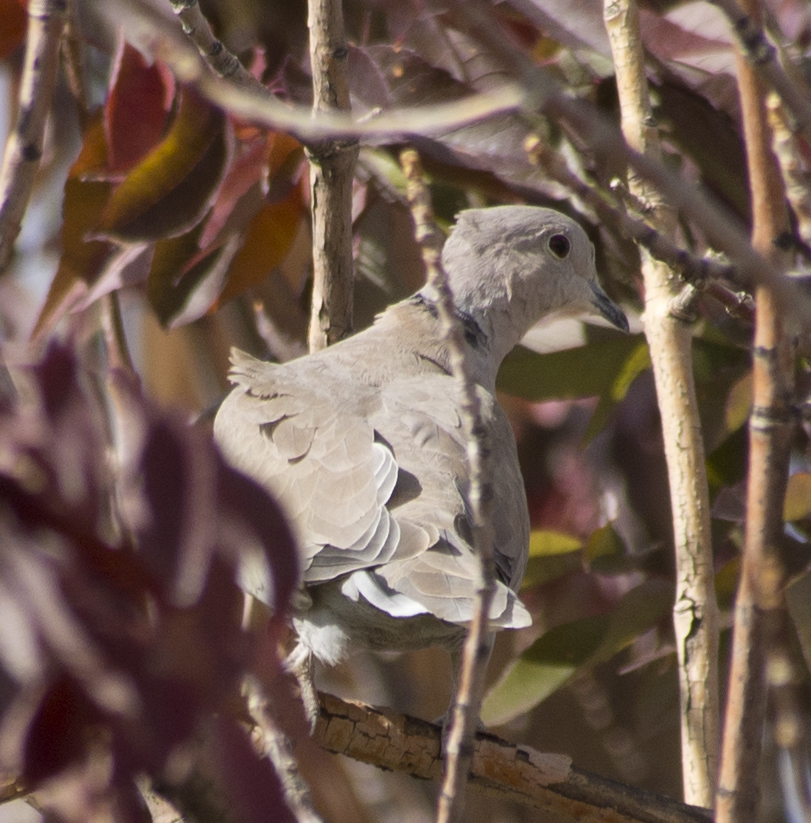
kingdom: Animalia
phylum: Chordata
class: Aves
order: Columbiformes
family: Columbidae
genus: Streptopelia
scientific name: Streptopelia decaocto
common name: Eurasian collared dove
